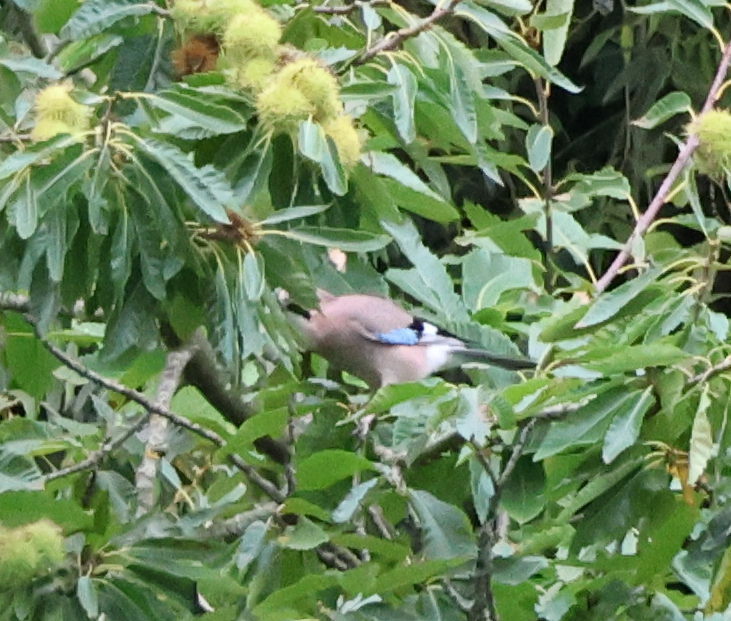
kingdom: Animalia
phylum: Chordata
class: Aves
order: Passeriformes
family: Corvidae
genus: Garrulus
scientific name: Garrulus glandarius
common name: Eurasian jay
